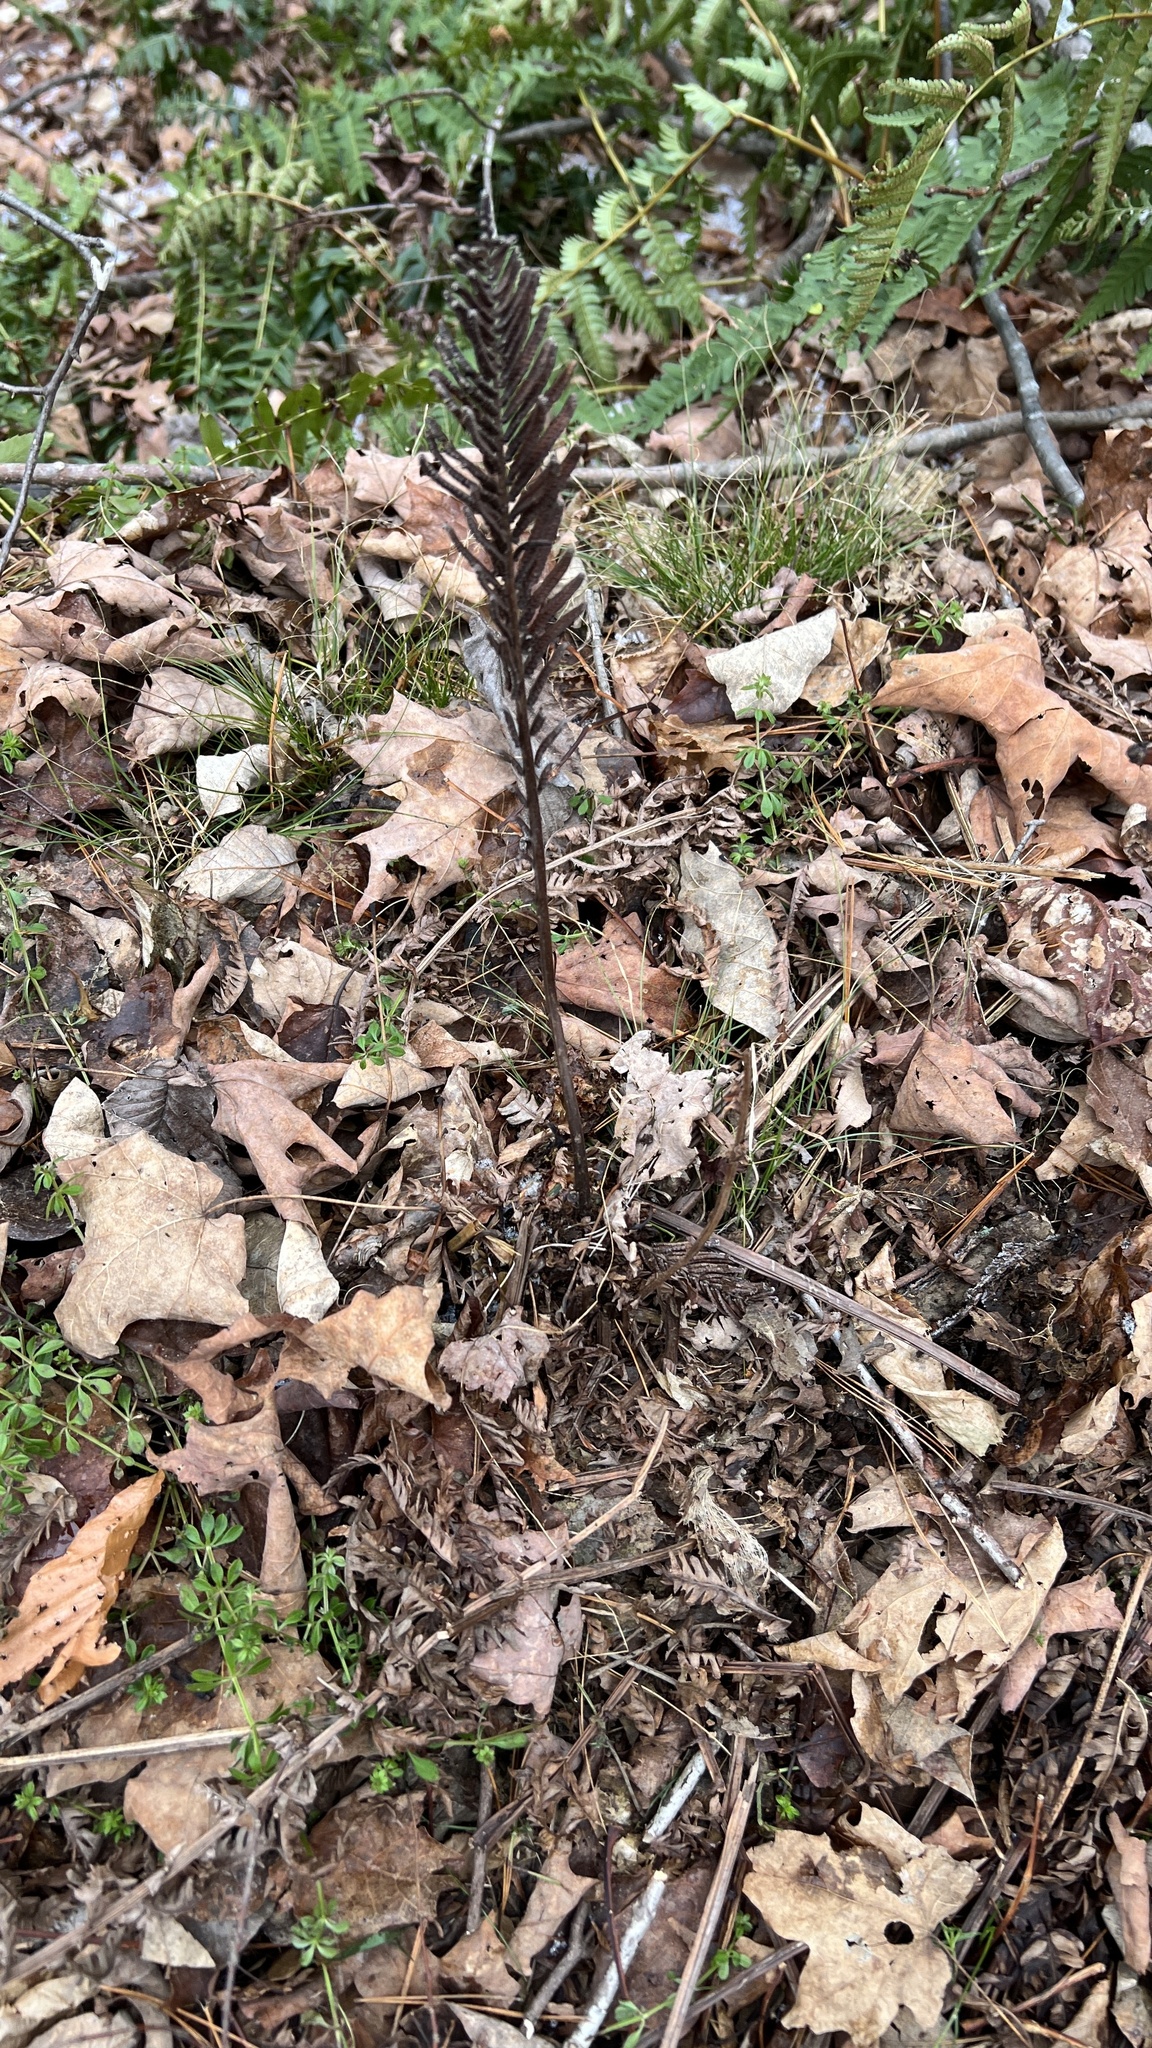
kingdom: Plantae
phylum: Tracheophyta
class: Polypodiopsida
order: Polypodiales
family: Onocleaceae
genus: Matteuccia
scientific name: Matteuccia struthiopteris
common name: Ostrich fern
